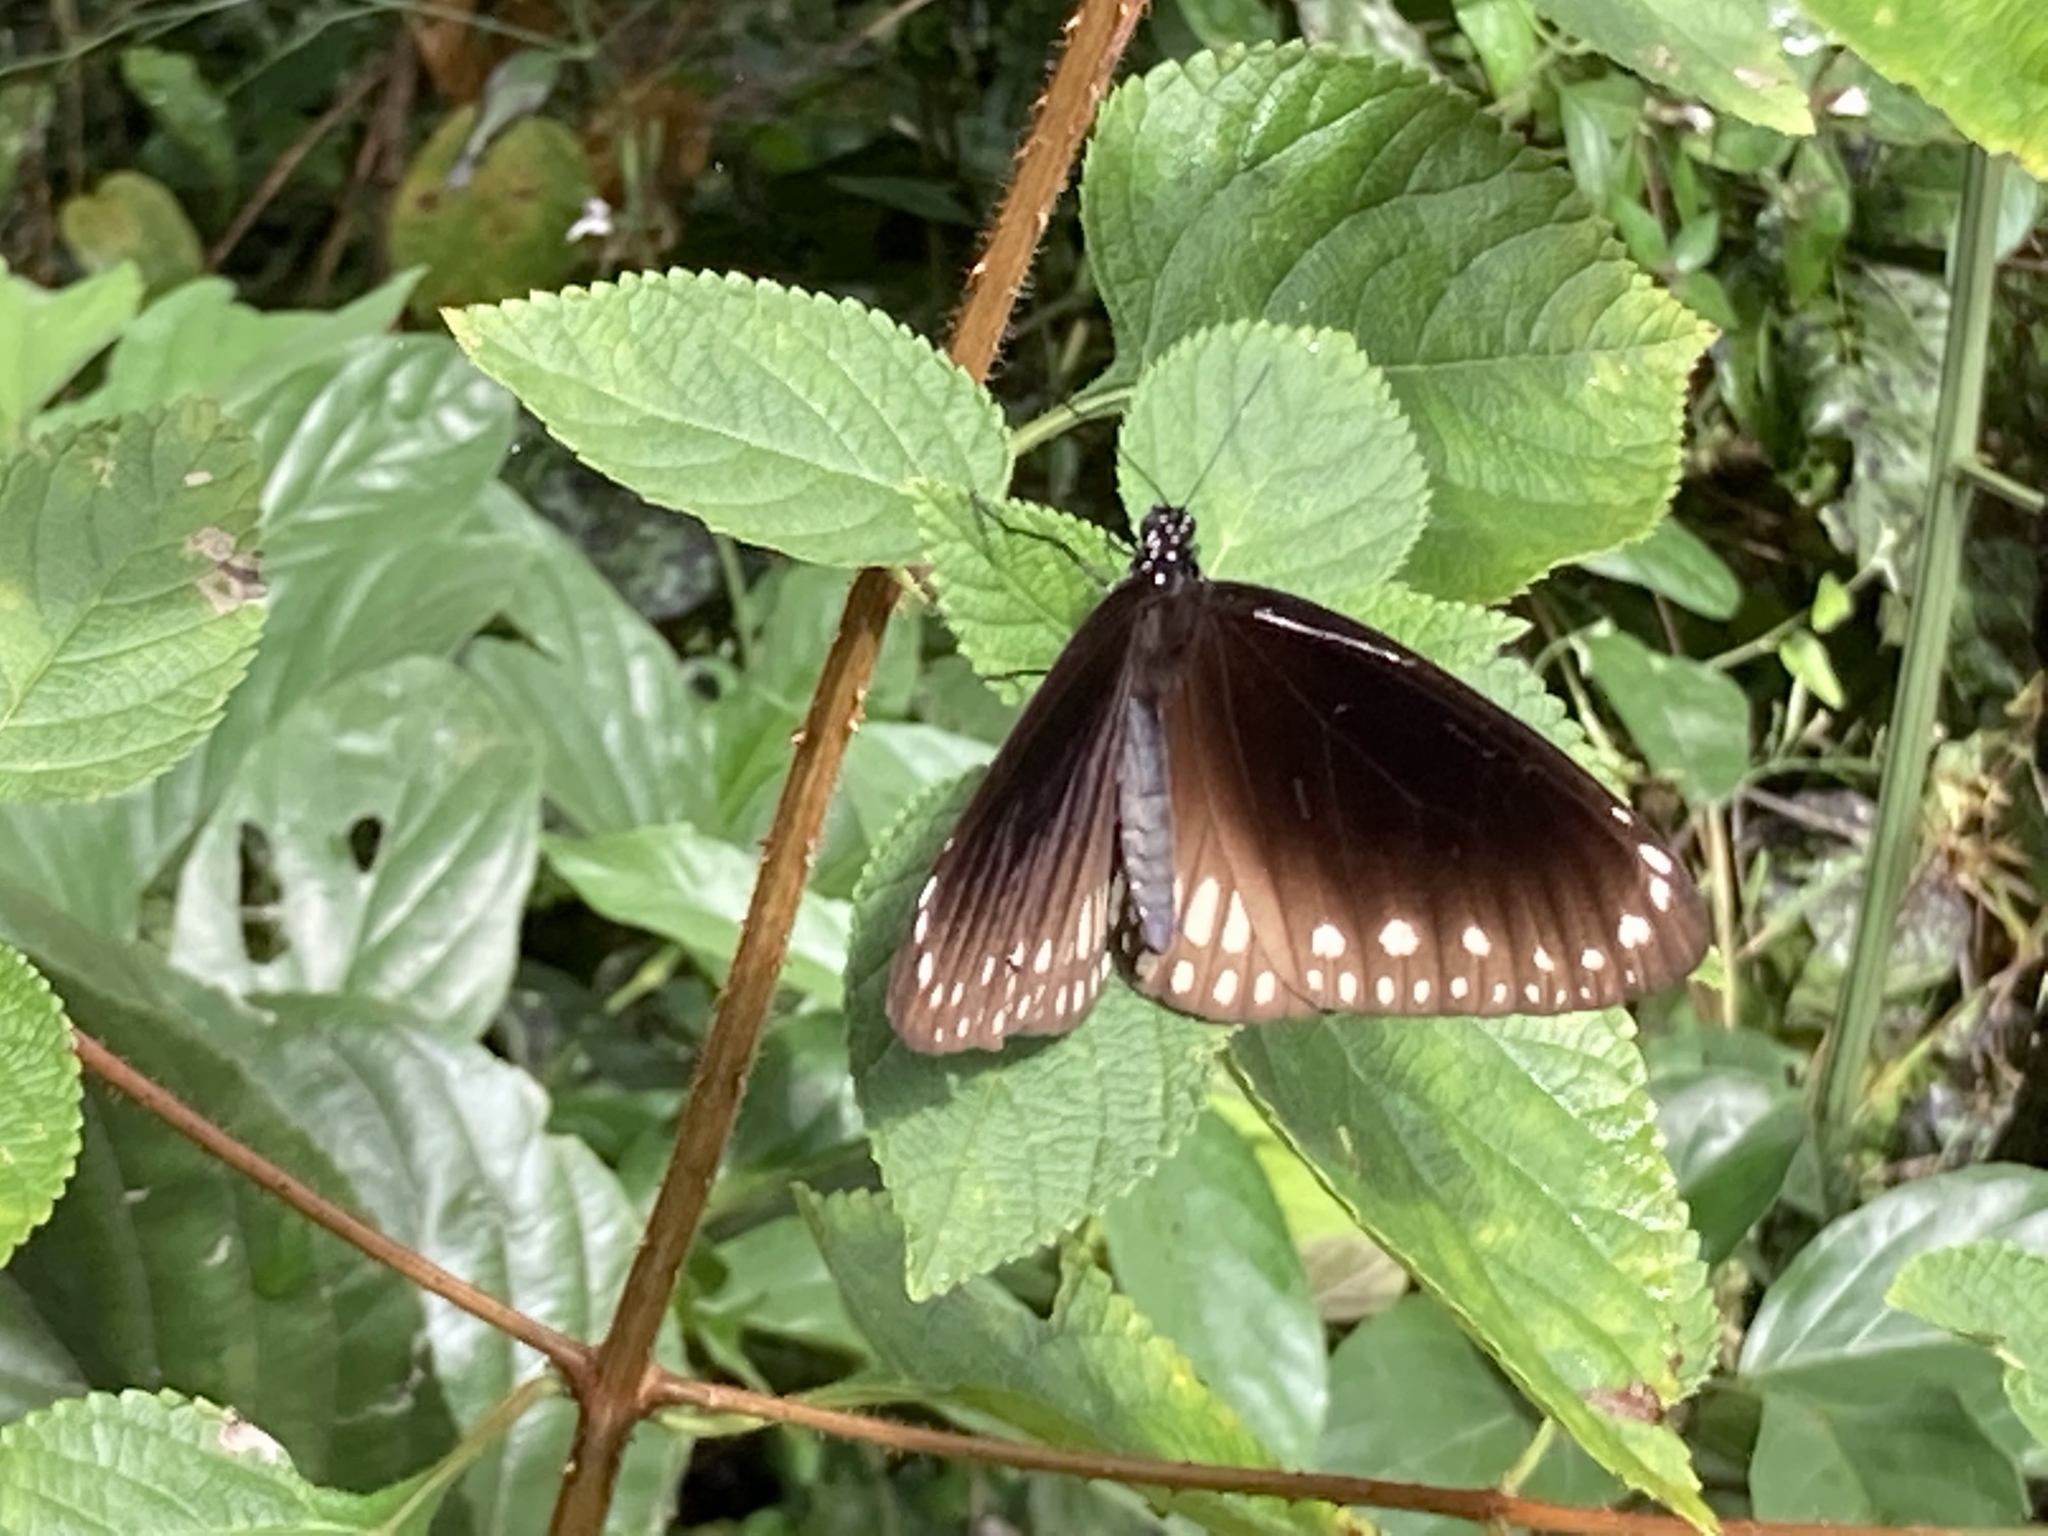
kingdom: Animalia
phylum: Arthropoda
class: Insecta
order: Lepidoptera
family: Nymphalidae
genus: Euploea
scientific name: Euploea core
